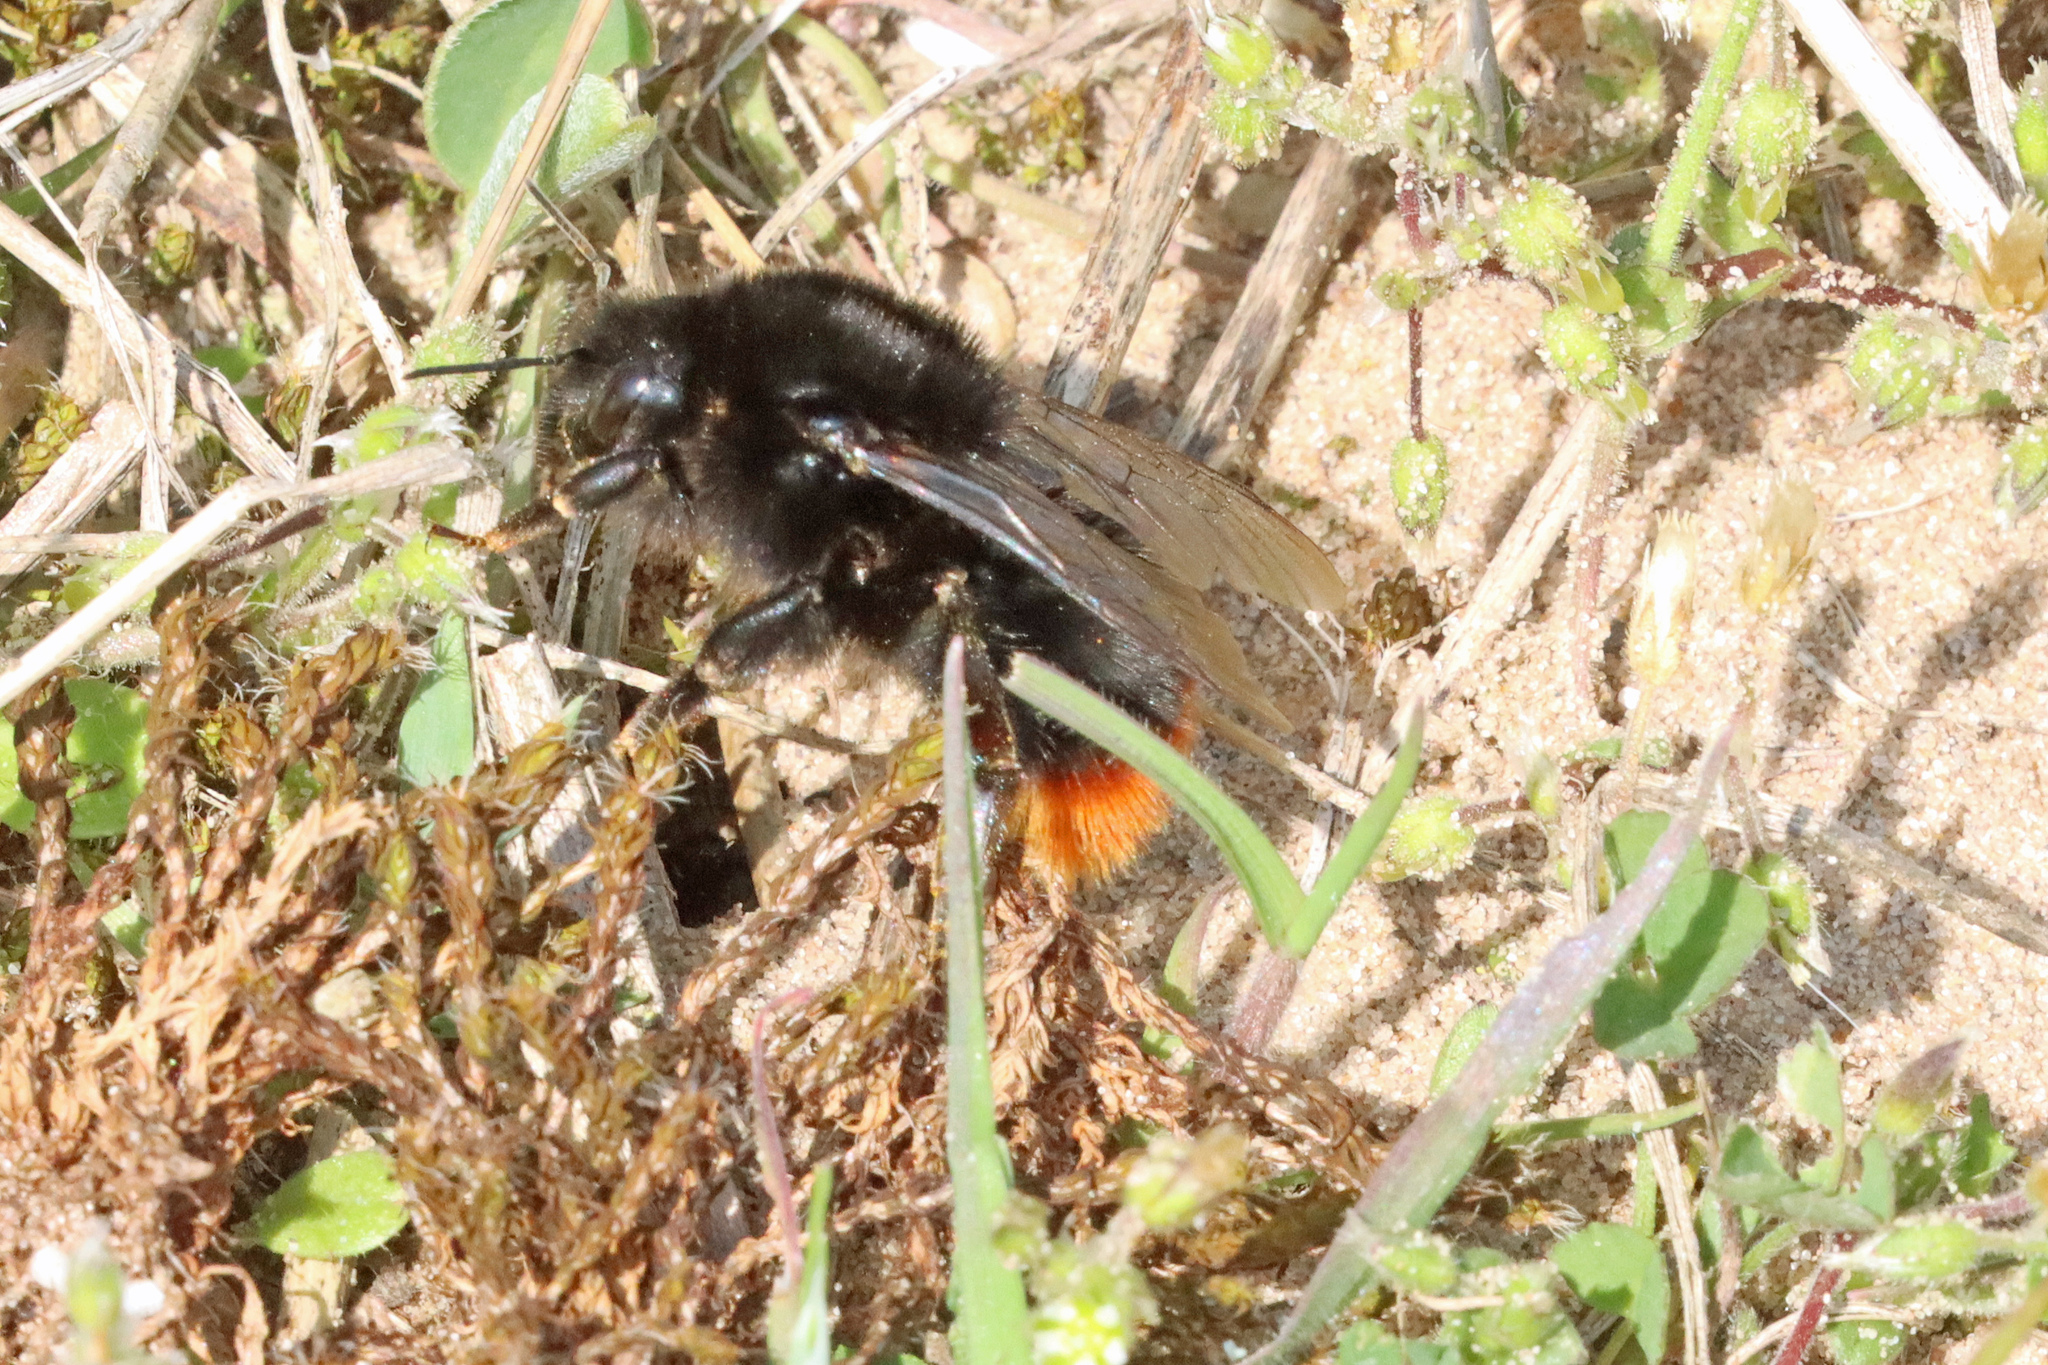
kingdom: Animalia
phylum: Arthropoda
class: Insecta
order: Hymenoptera
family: Apidae
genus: Bombus
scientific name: Bombus lapidarius
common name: Large red-tailed humble-bee
